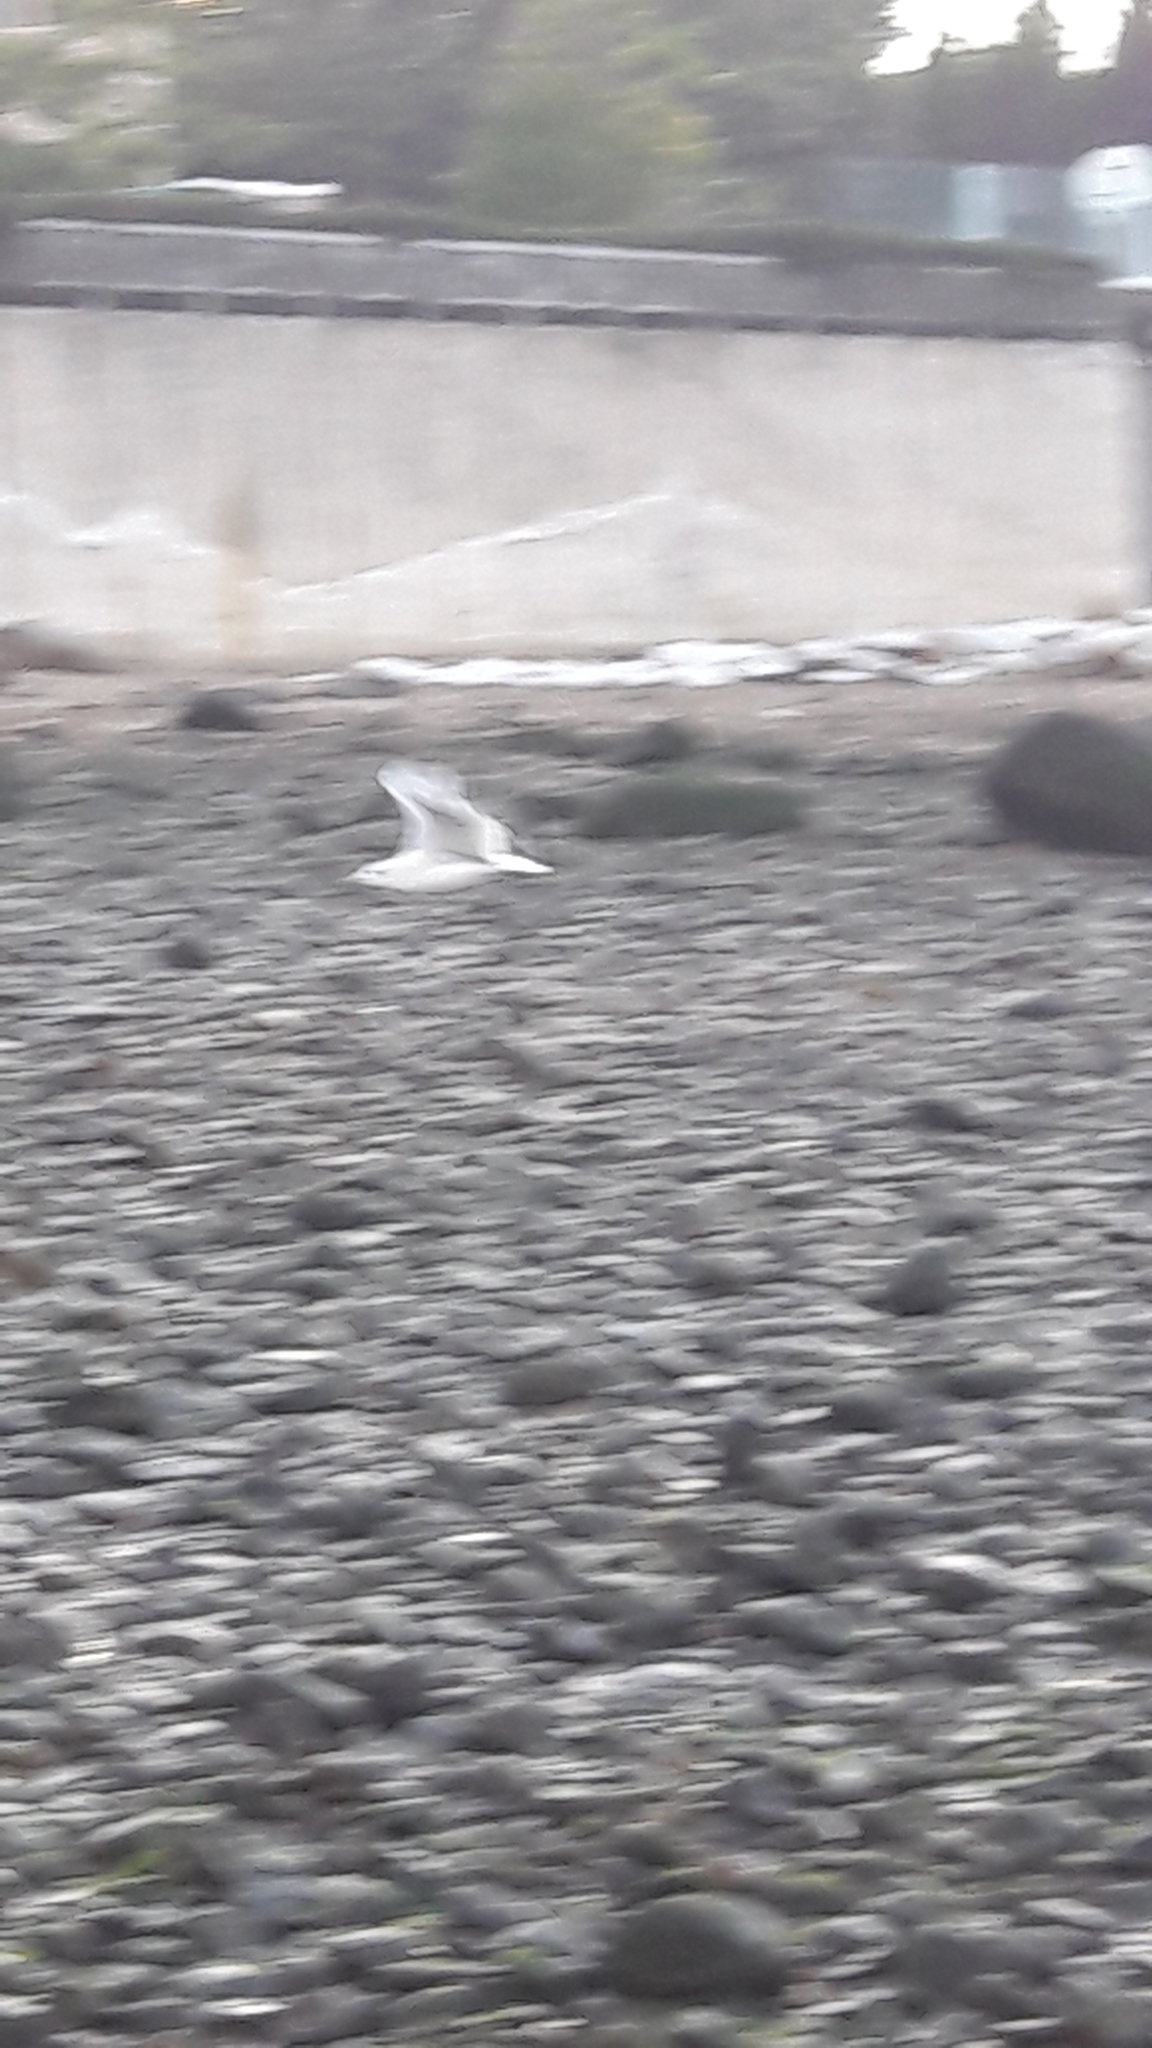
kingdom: Animalia
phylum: Chordata
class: Aves
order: Charadriiformes
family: Laridae
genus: Larus
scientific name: Larus delawarensis
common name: Ring-billed gull
